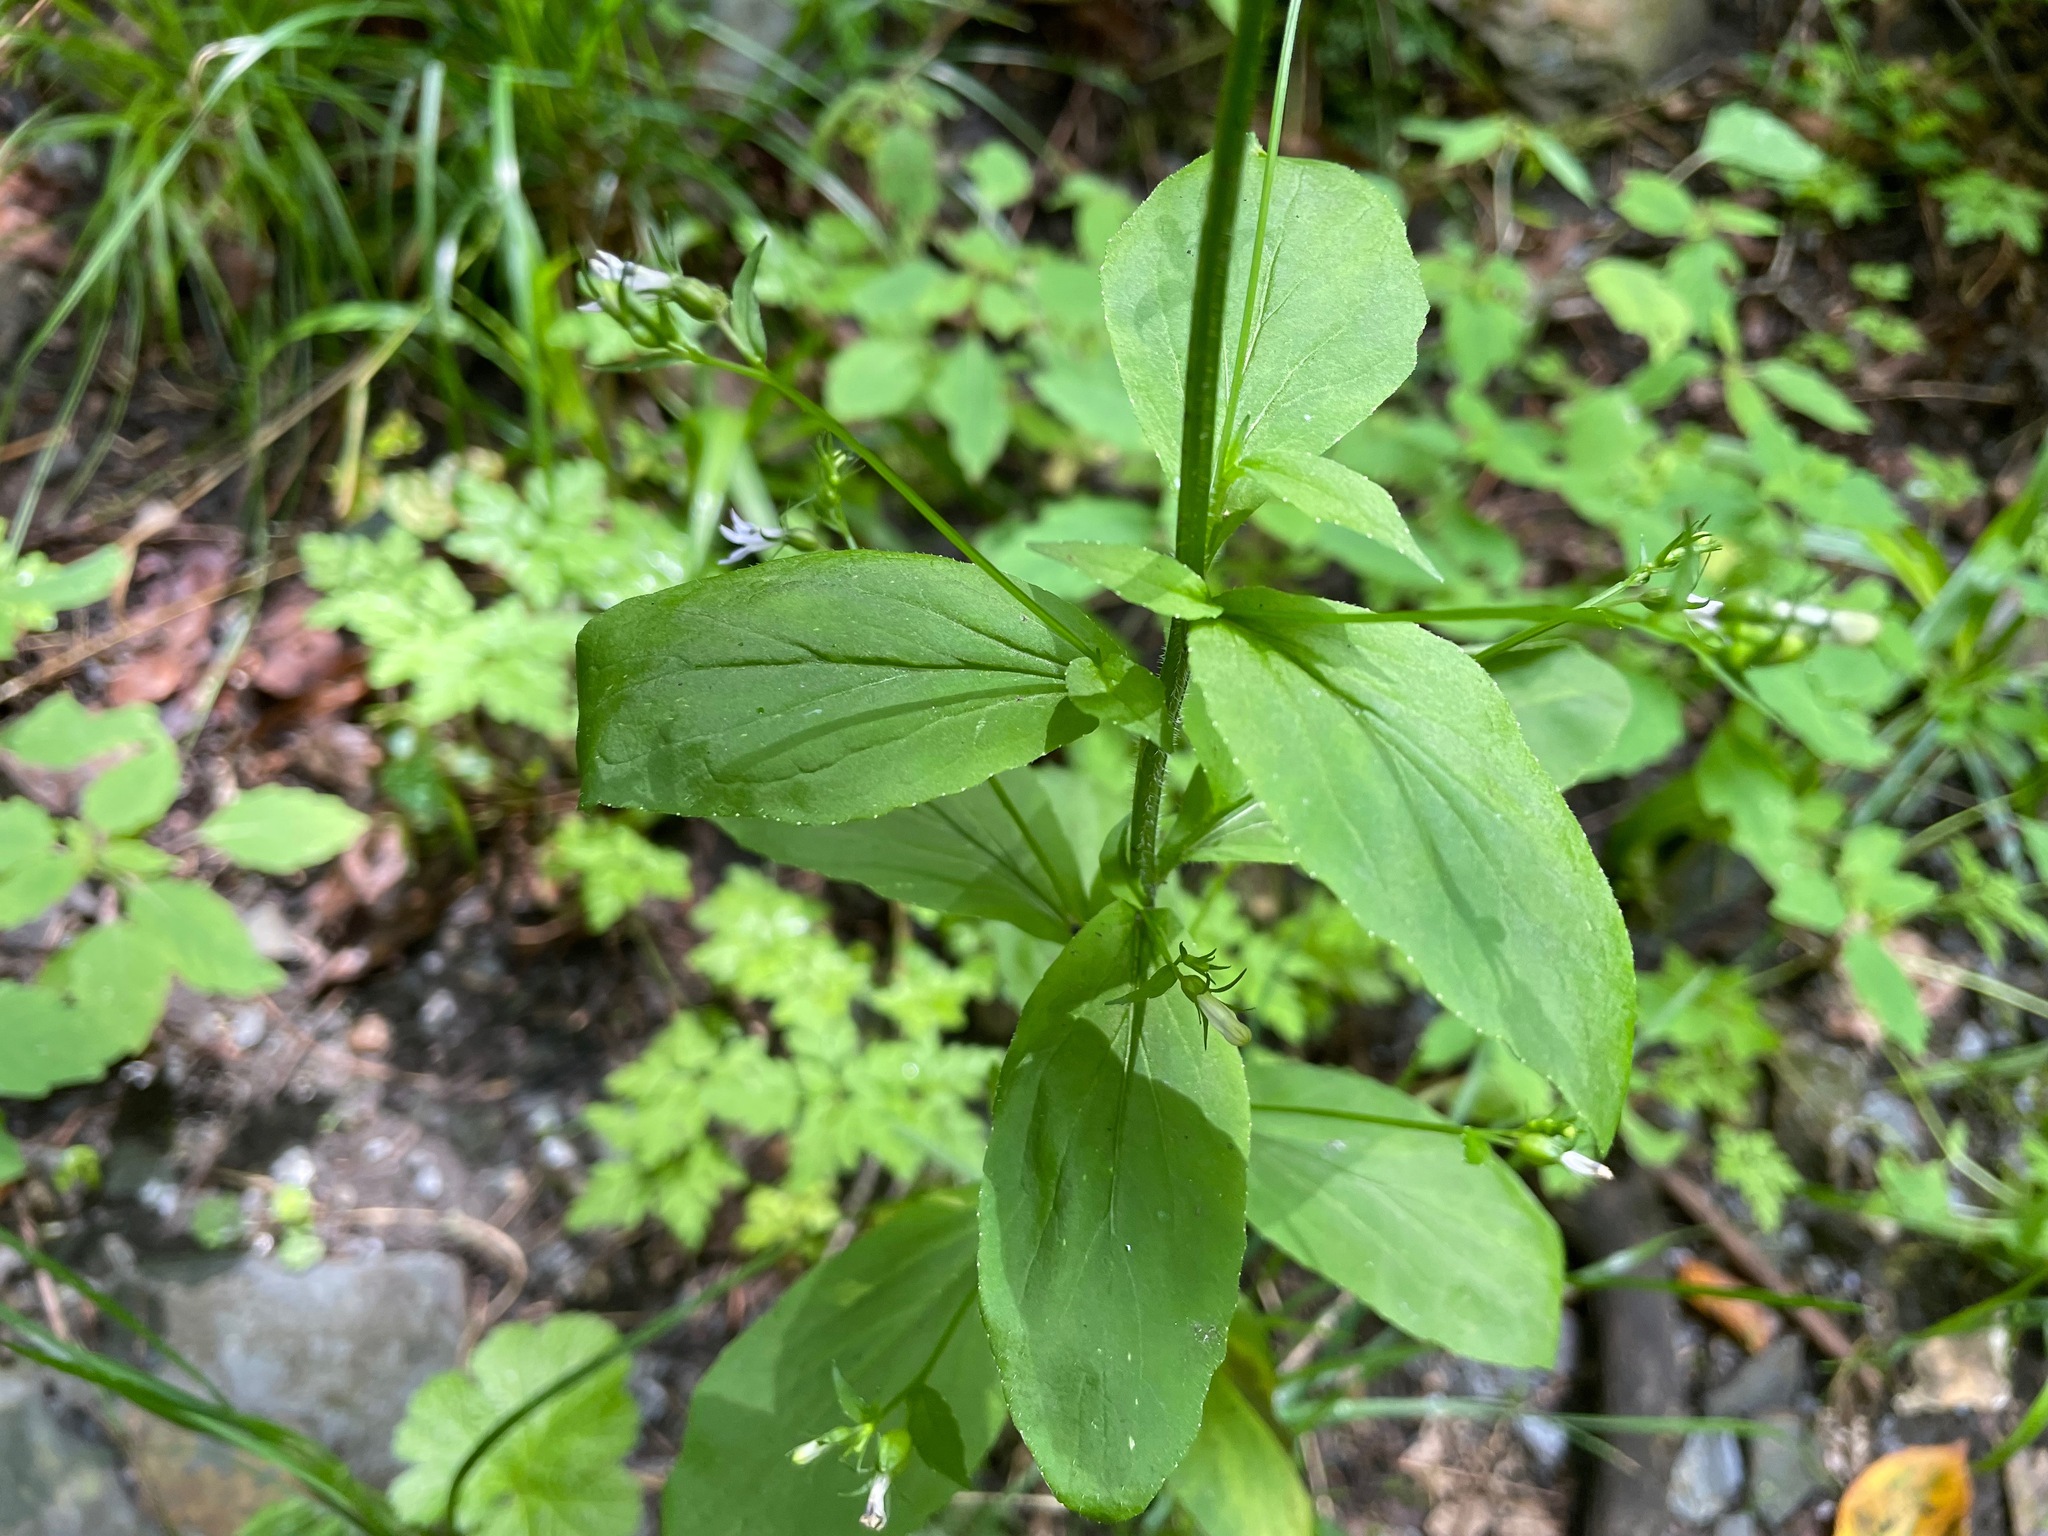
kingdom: Plantae
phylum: Tracheophyta
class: Magnoliopsida
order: Asterales
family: Campanulaceae
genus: Lobelia
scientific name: Lobelia inflata
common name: Indian tobacco
